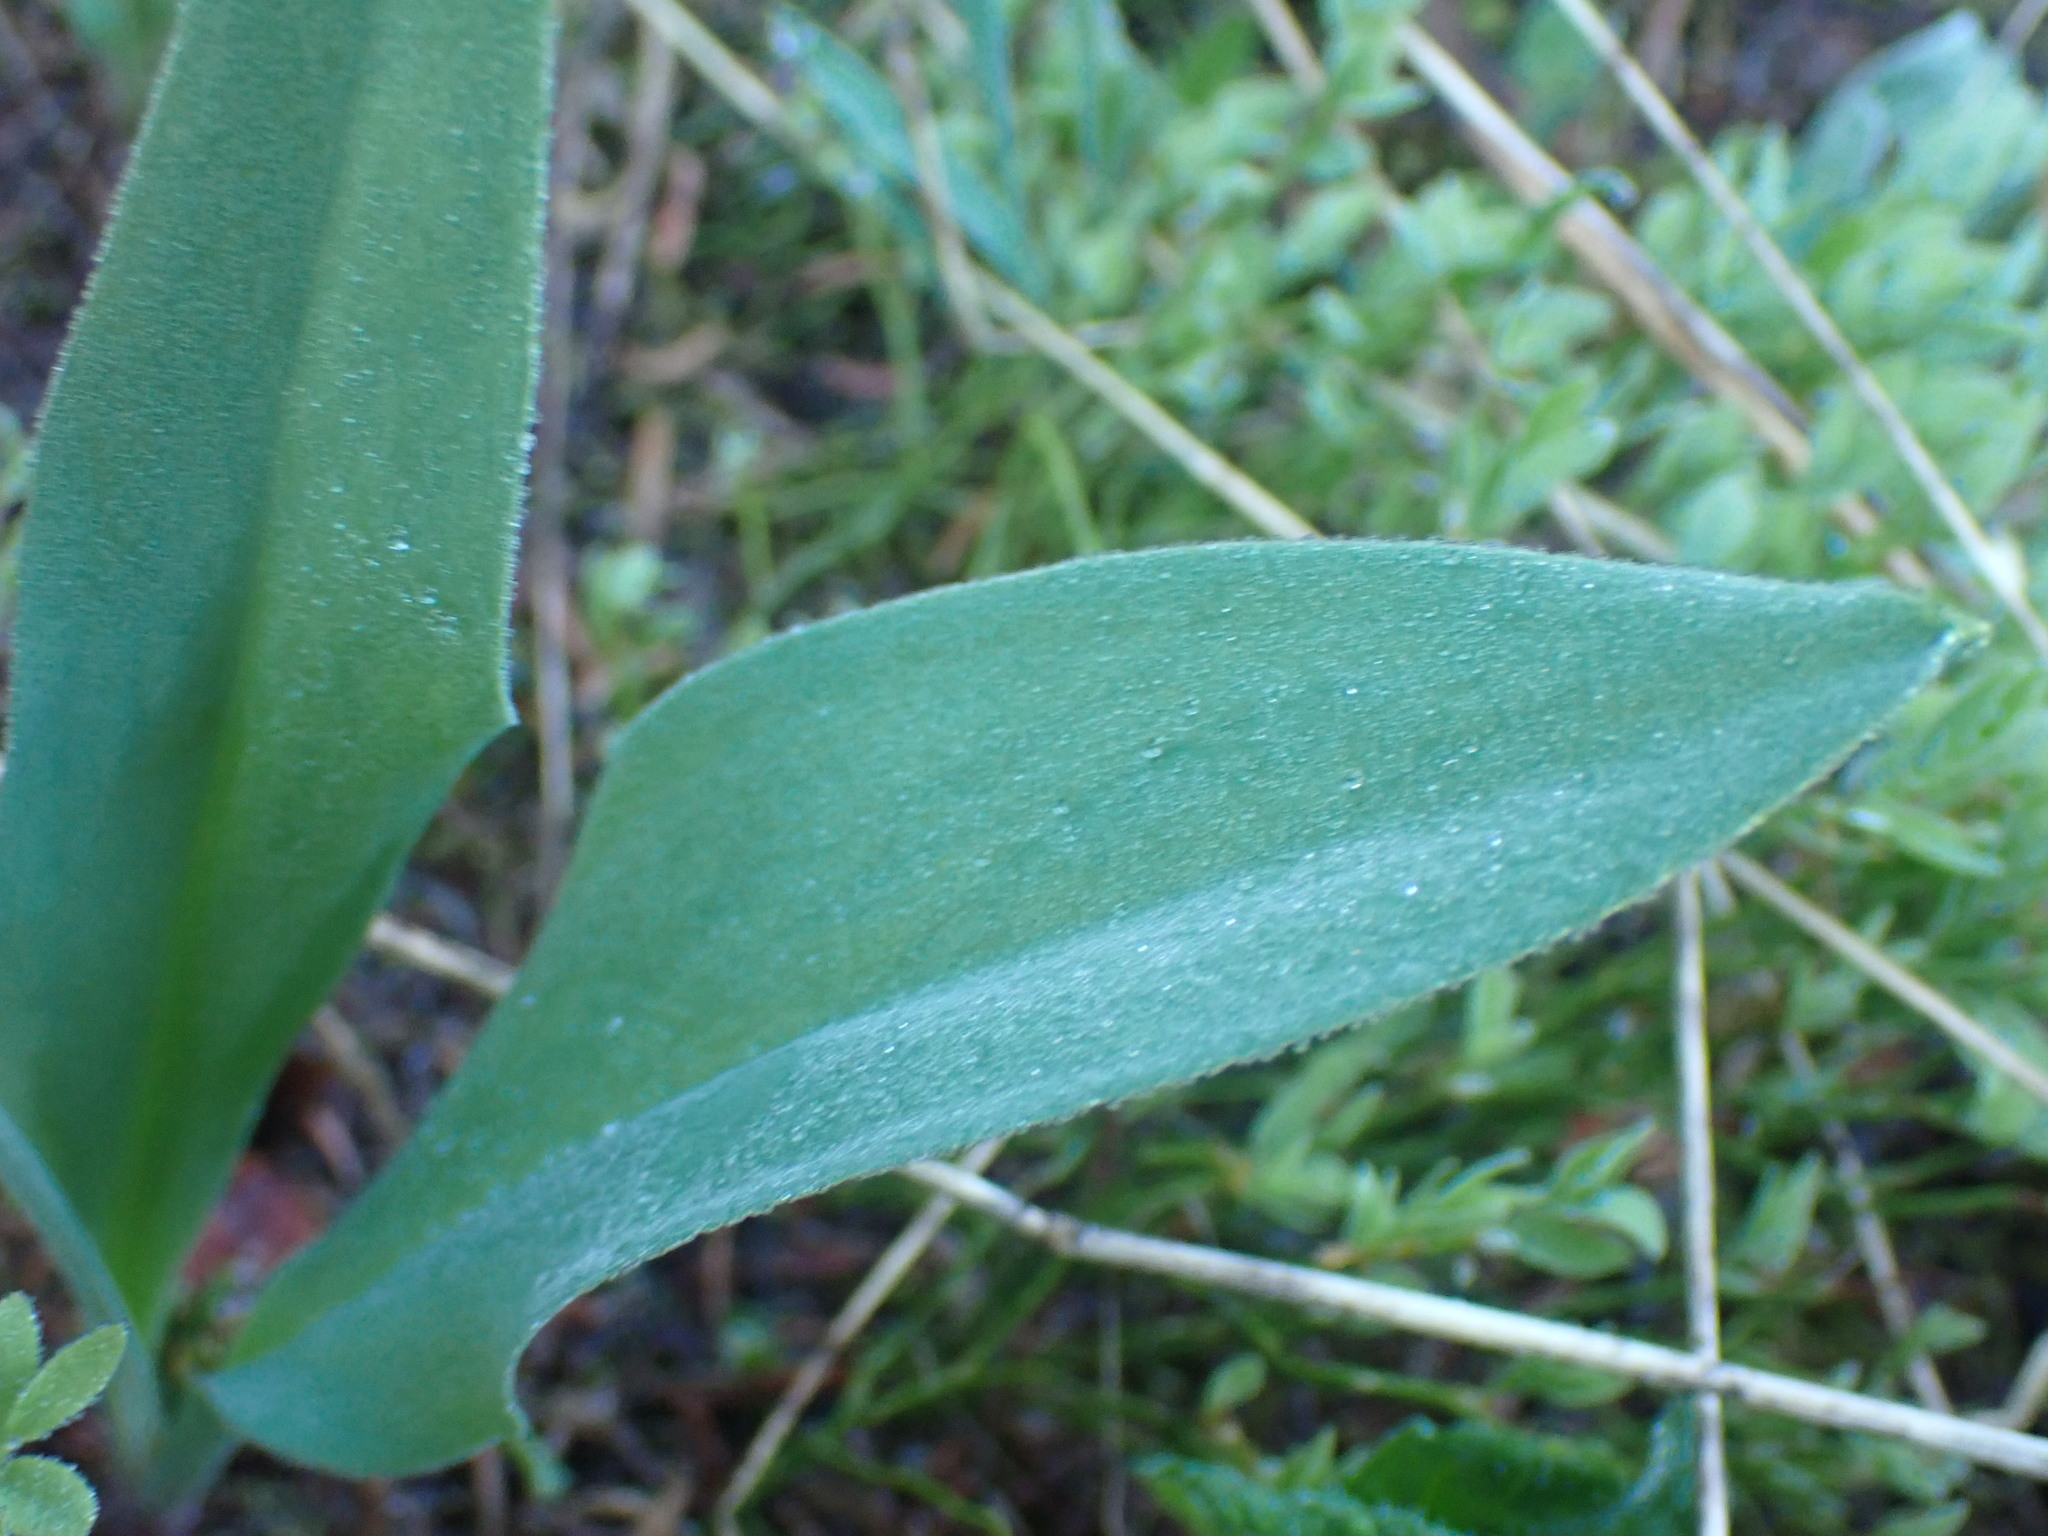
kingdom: Plantae
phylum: Tracheophyta
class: Liliopsida
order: Liliales
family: Liliaceae
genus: Erythronium
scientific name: Erythronium grandiflorum
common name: Avalanche-lily
